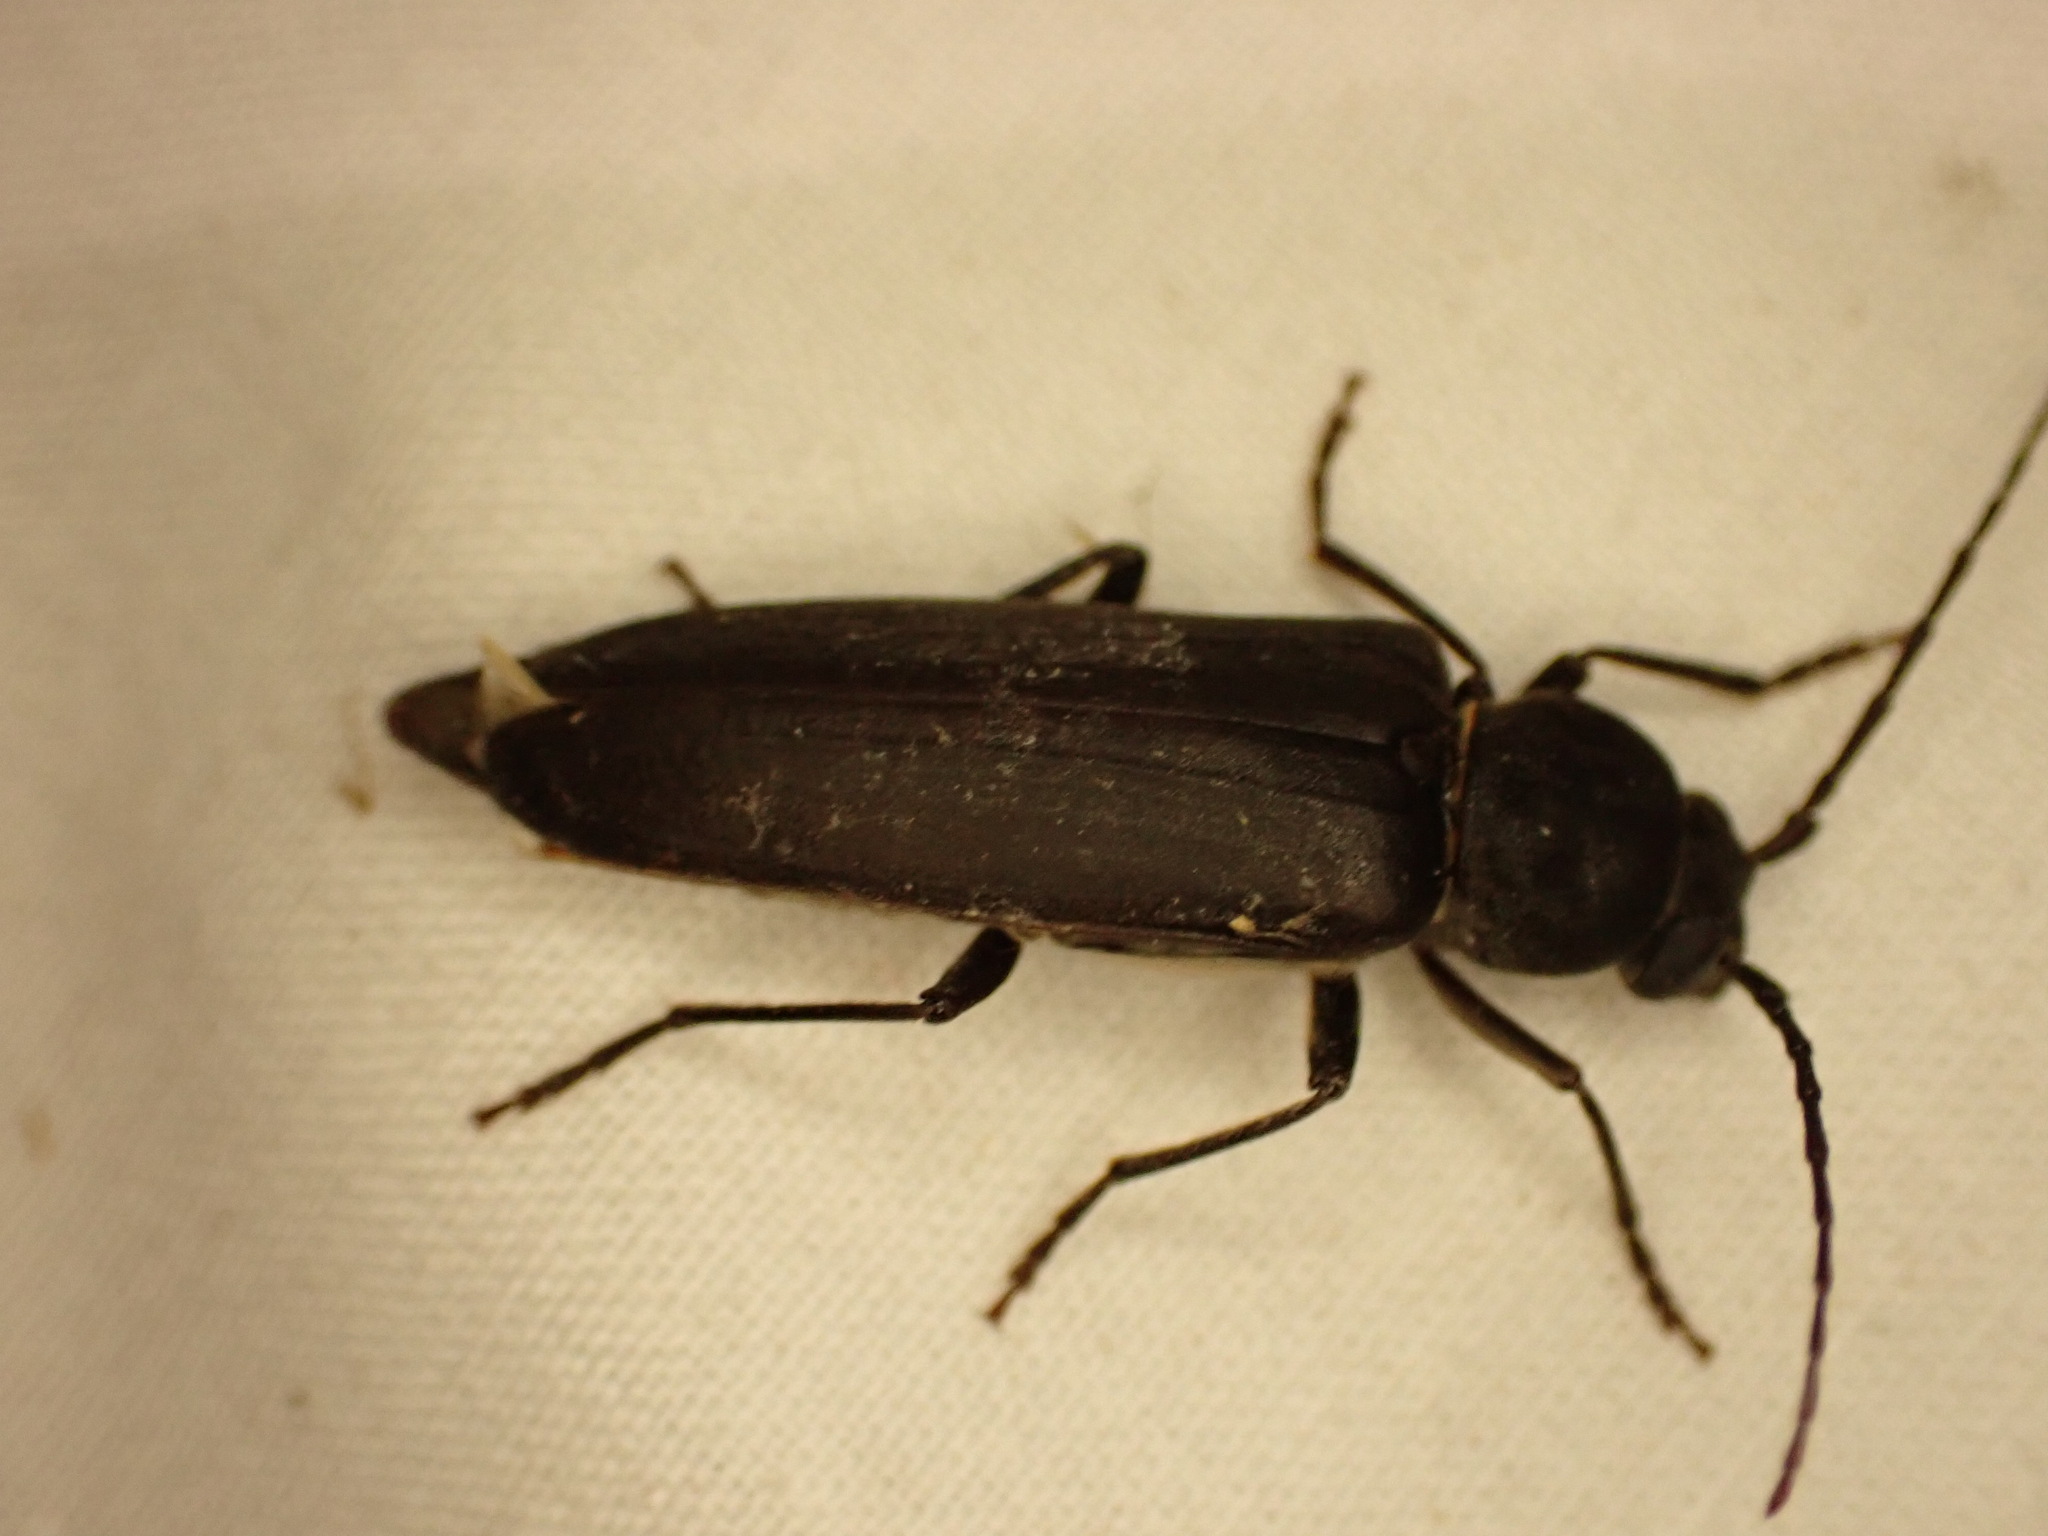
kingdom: Animalia
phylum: Arthropoda
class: Insecta
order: Coleoptera
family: Cerambycidae
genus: Arhopalus
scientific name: Arhopalus ferus
